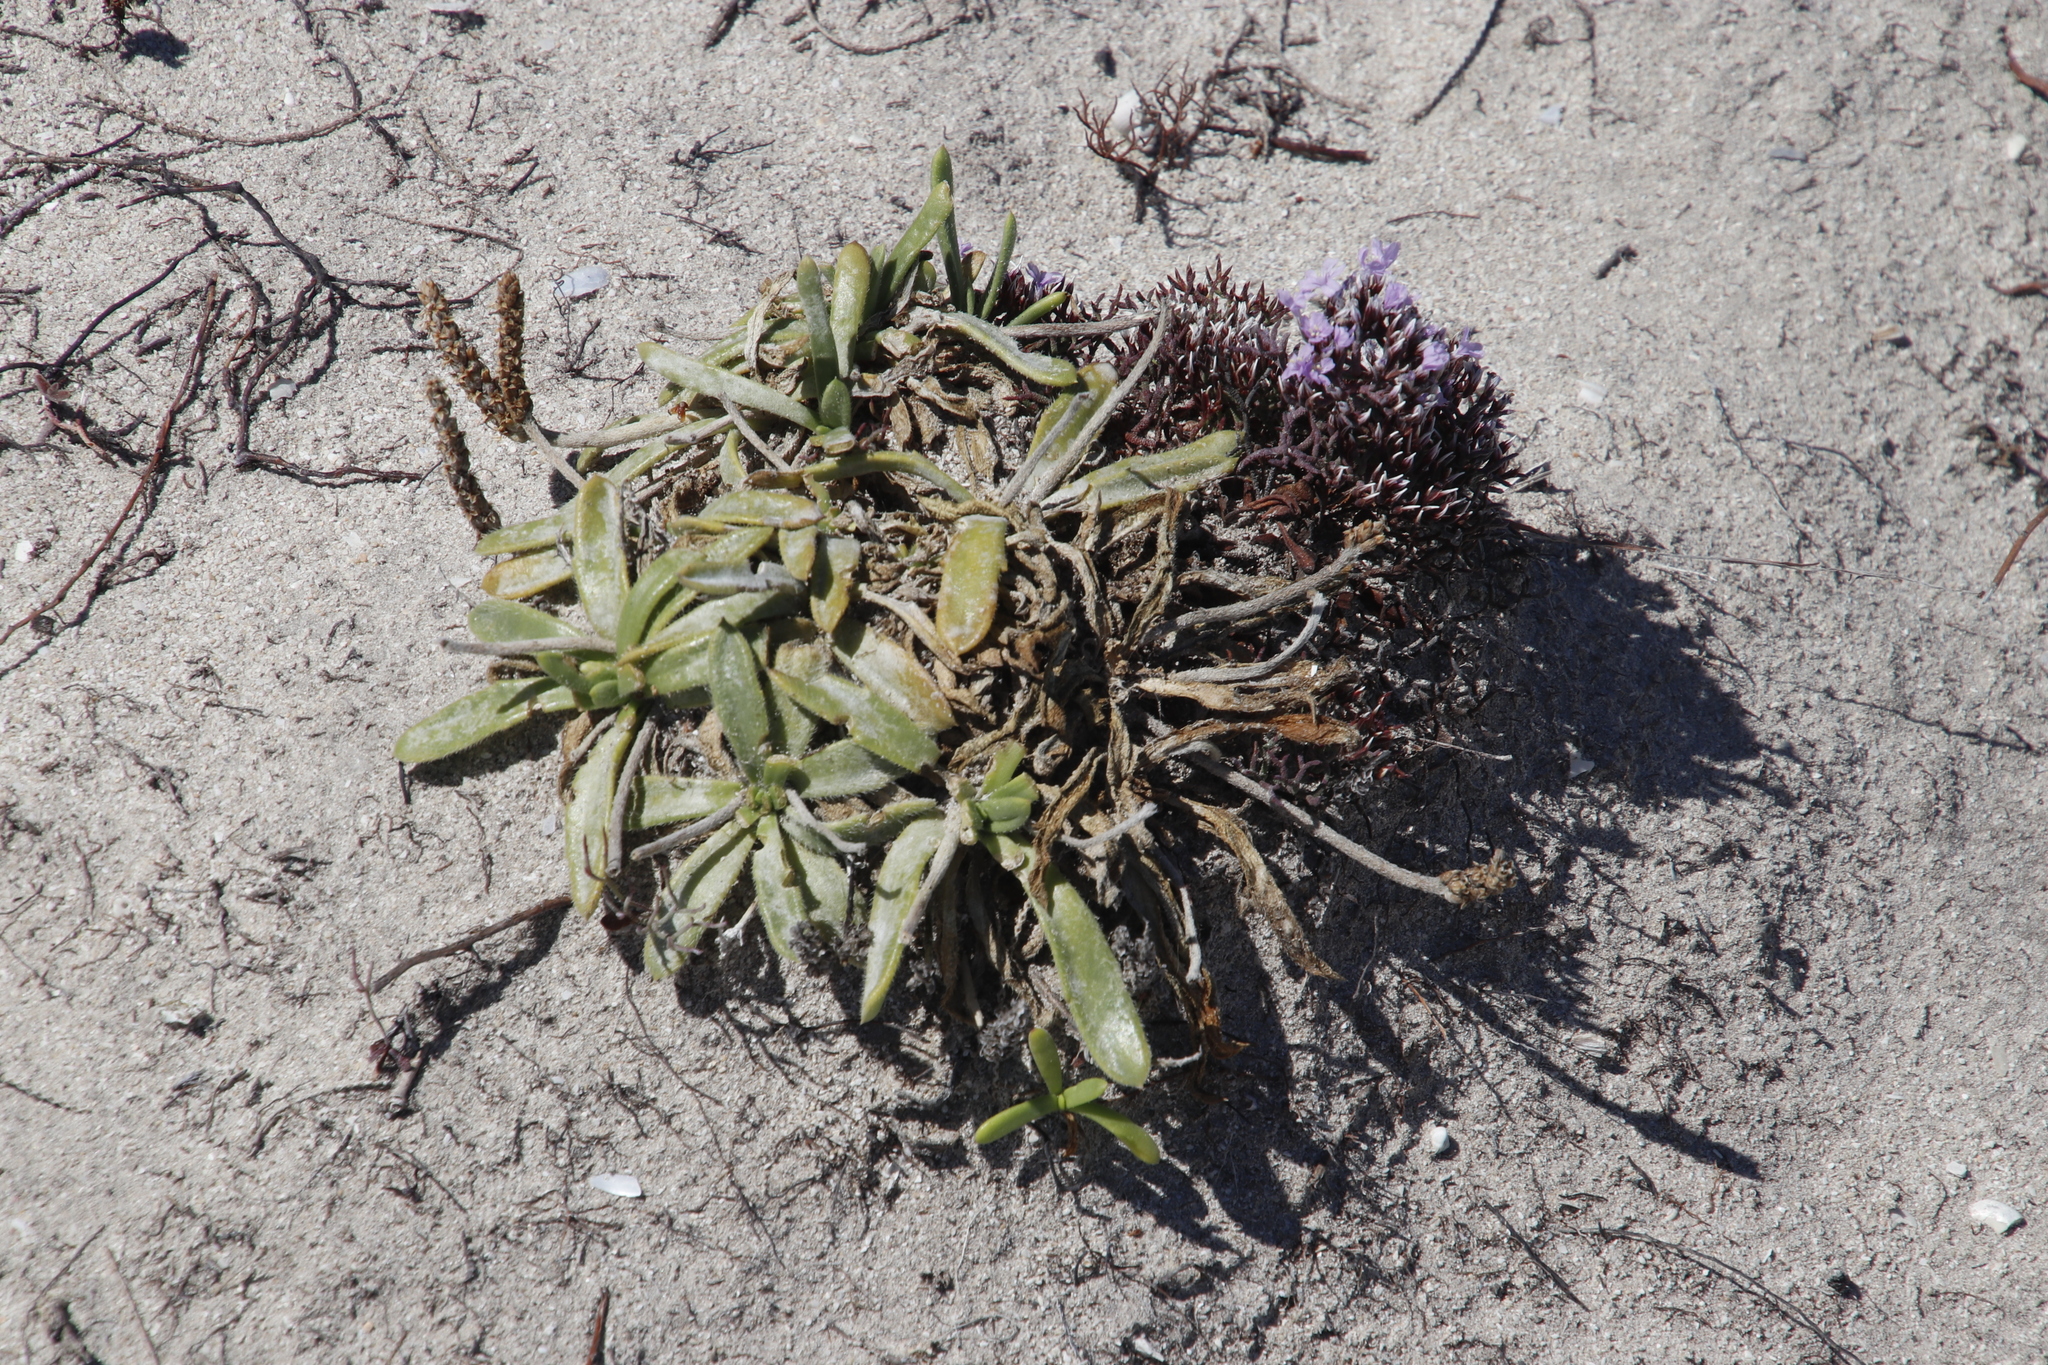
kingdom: Plantae
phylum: Tracheophyta
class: Magnoliopsida
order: Lamiales
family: Plantaginaceae
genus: Plantago
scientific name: Plantago carnosa
